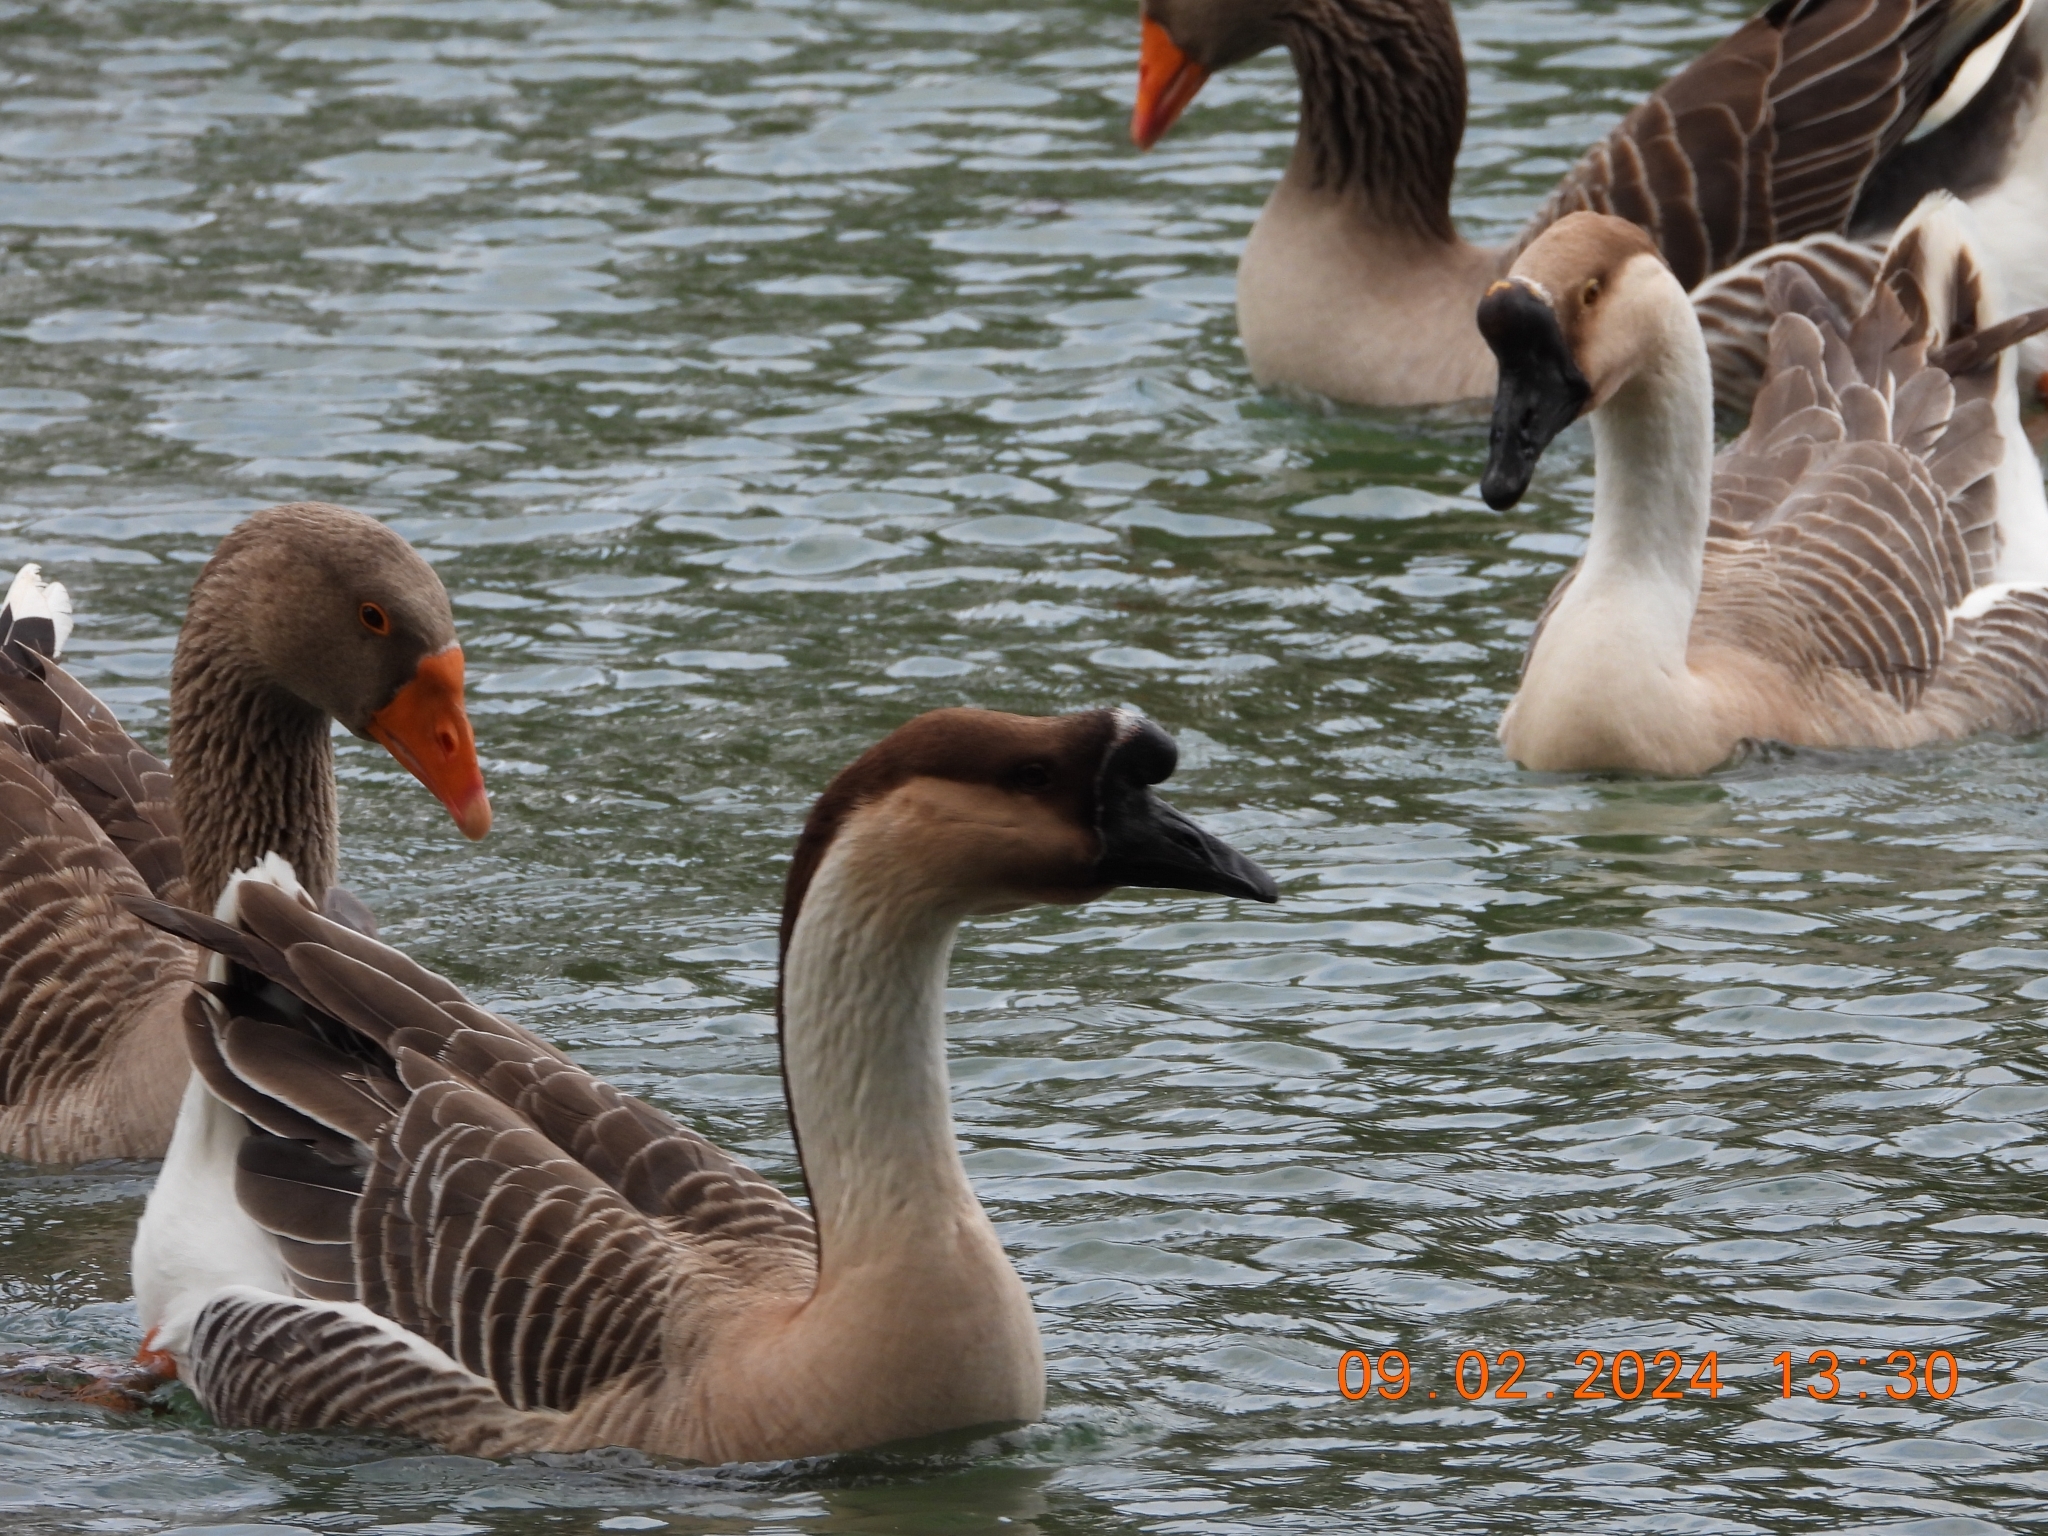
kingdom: Animalia
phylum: Chordata
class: Aves
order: Anseriformes
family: Anatidae
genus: Anser
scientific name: Anser cygnoides
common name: Swan goose
